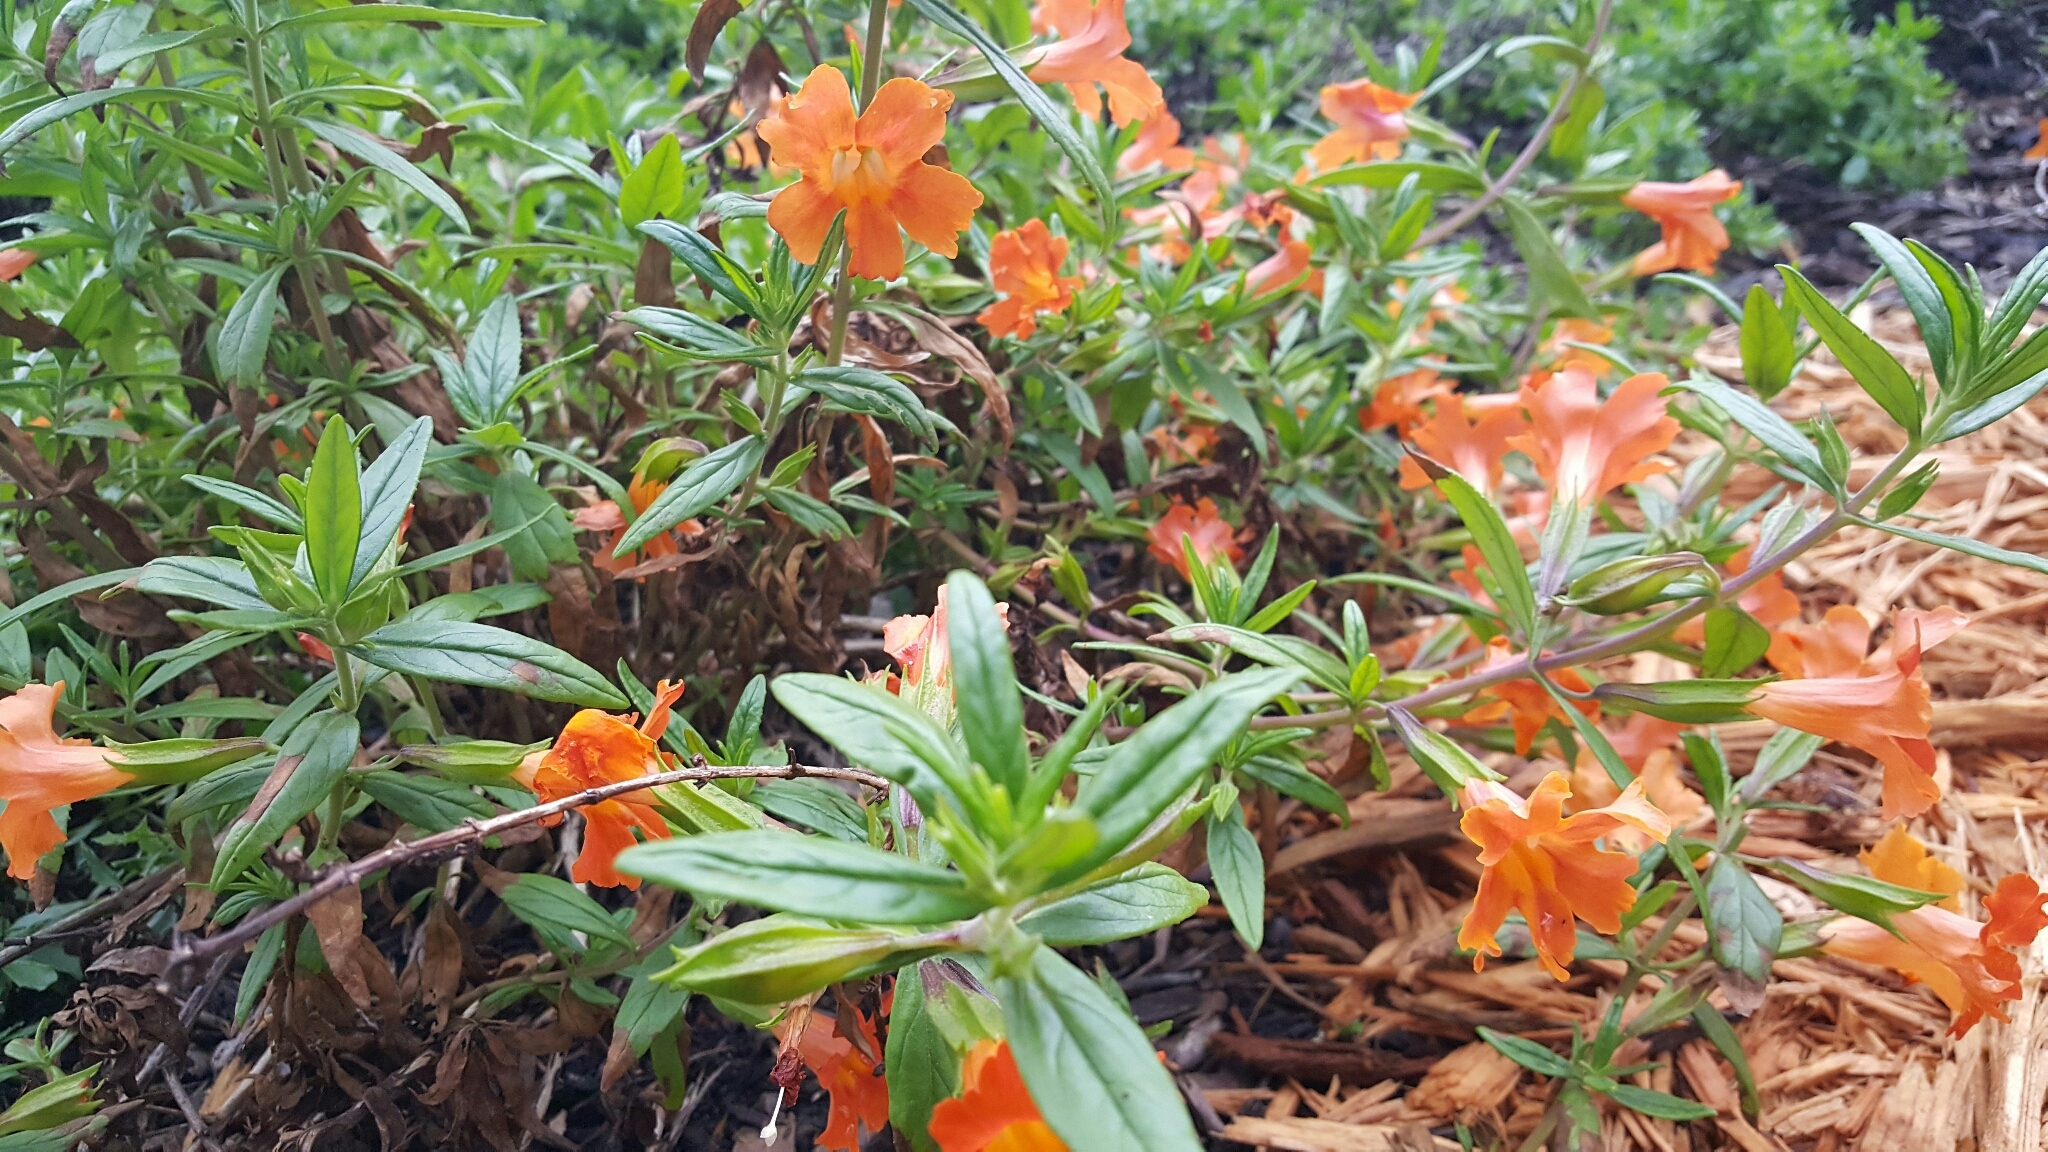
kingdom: Plantae
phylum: Tracheophyta
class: Magnoliopsida
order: Lamiales
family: Phrymaceae
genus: Diplacus
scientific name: Diplacus aurantiacus
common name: Bush monkey-flower
